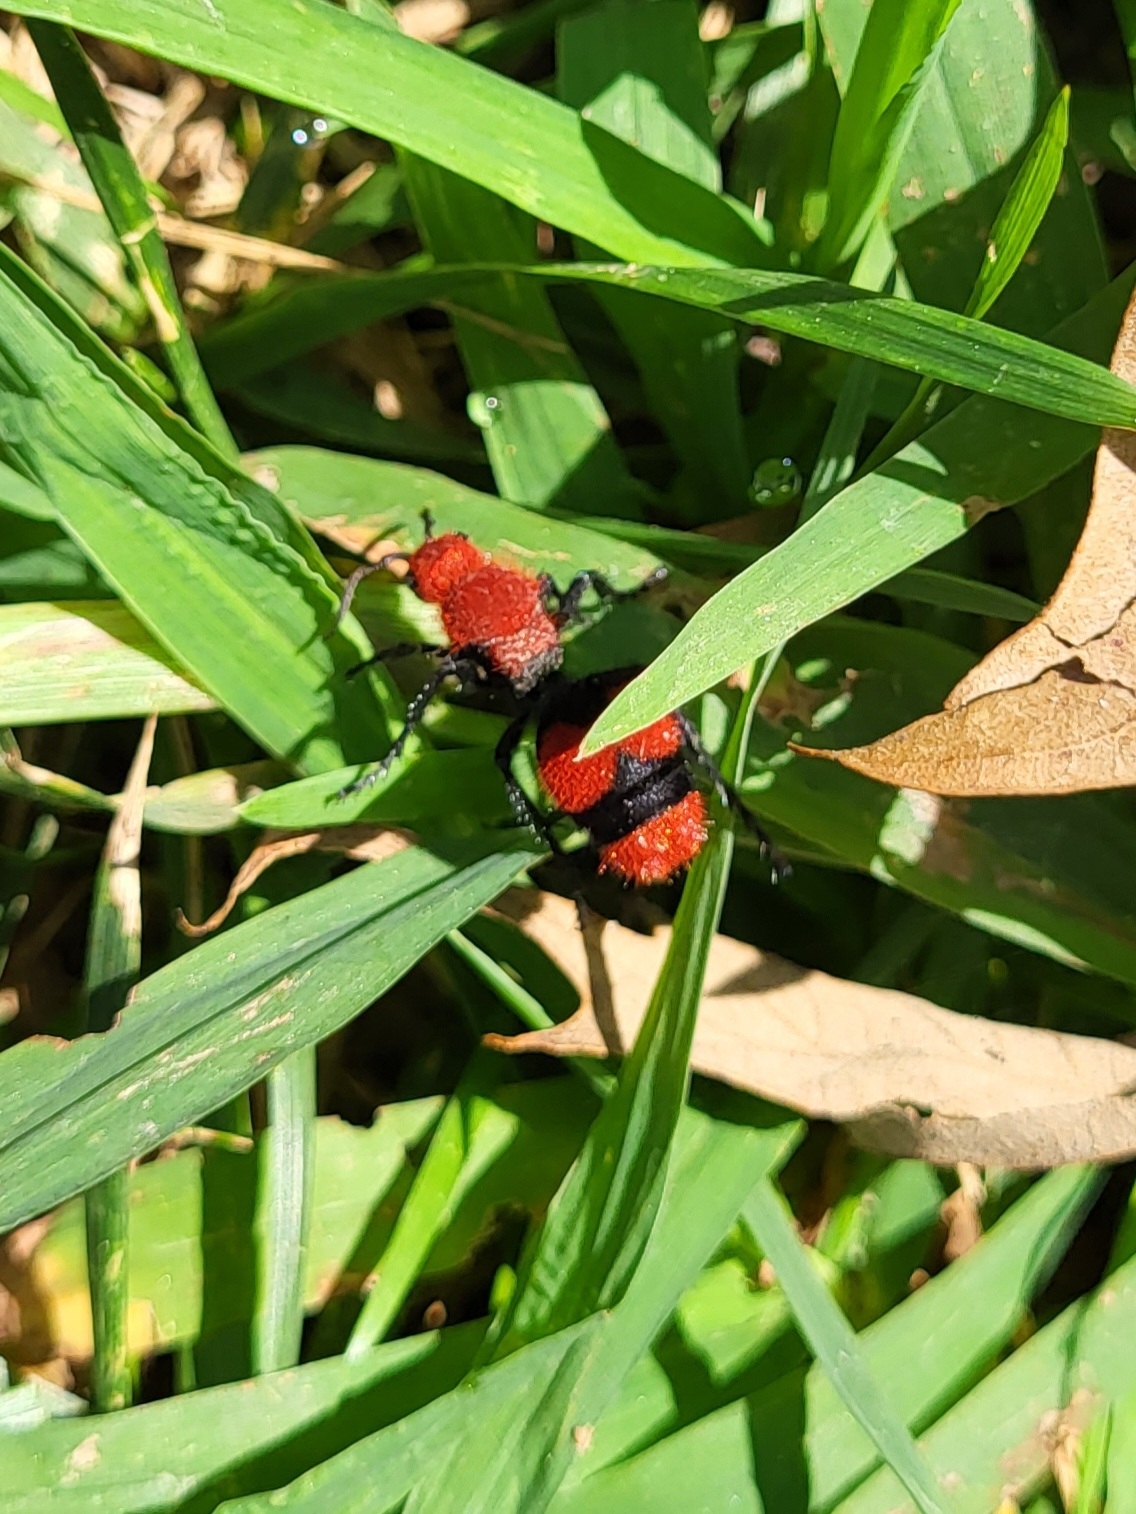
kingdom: Animalia
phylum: Arthropoda
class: Insecta
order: Hymenoptera
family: Mutillidae
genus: Dasymutilla
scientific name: Dasymutilla occidentalis
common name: Common eastern velvet ant
